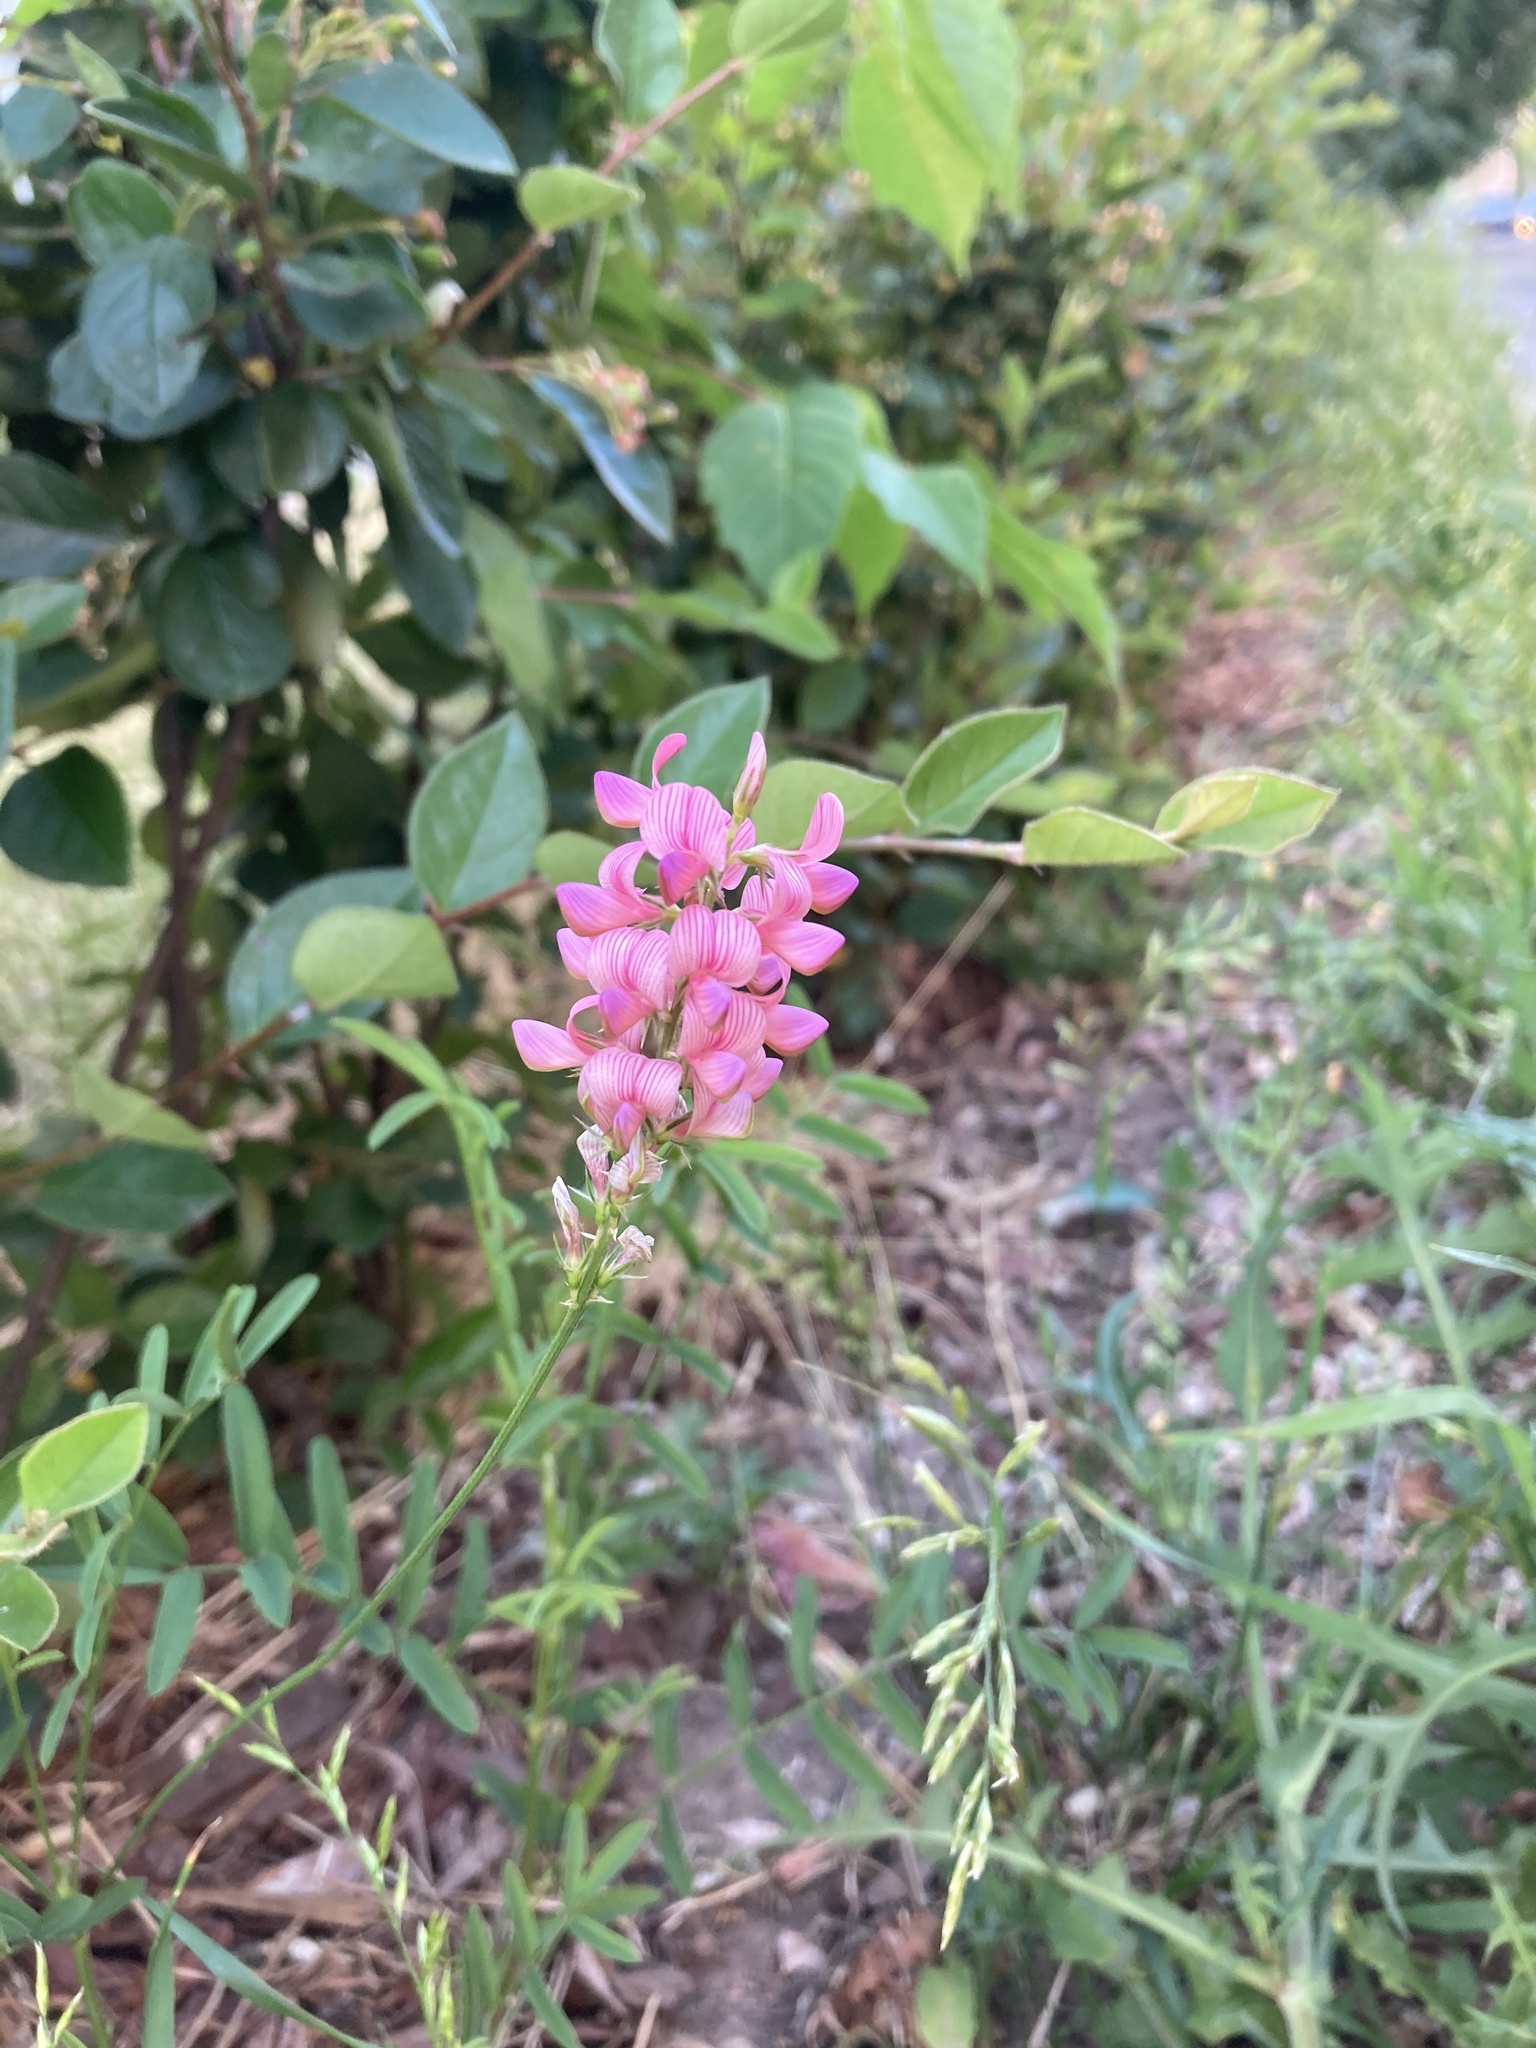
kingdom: Plantae
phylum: Tracheophyta
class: Magnoliopsida
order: Fabales
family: Fabaceae
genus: Onobrychis
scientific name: Onobrychis viciifolia
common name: Sainfoin
